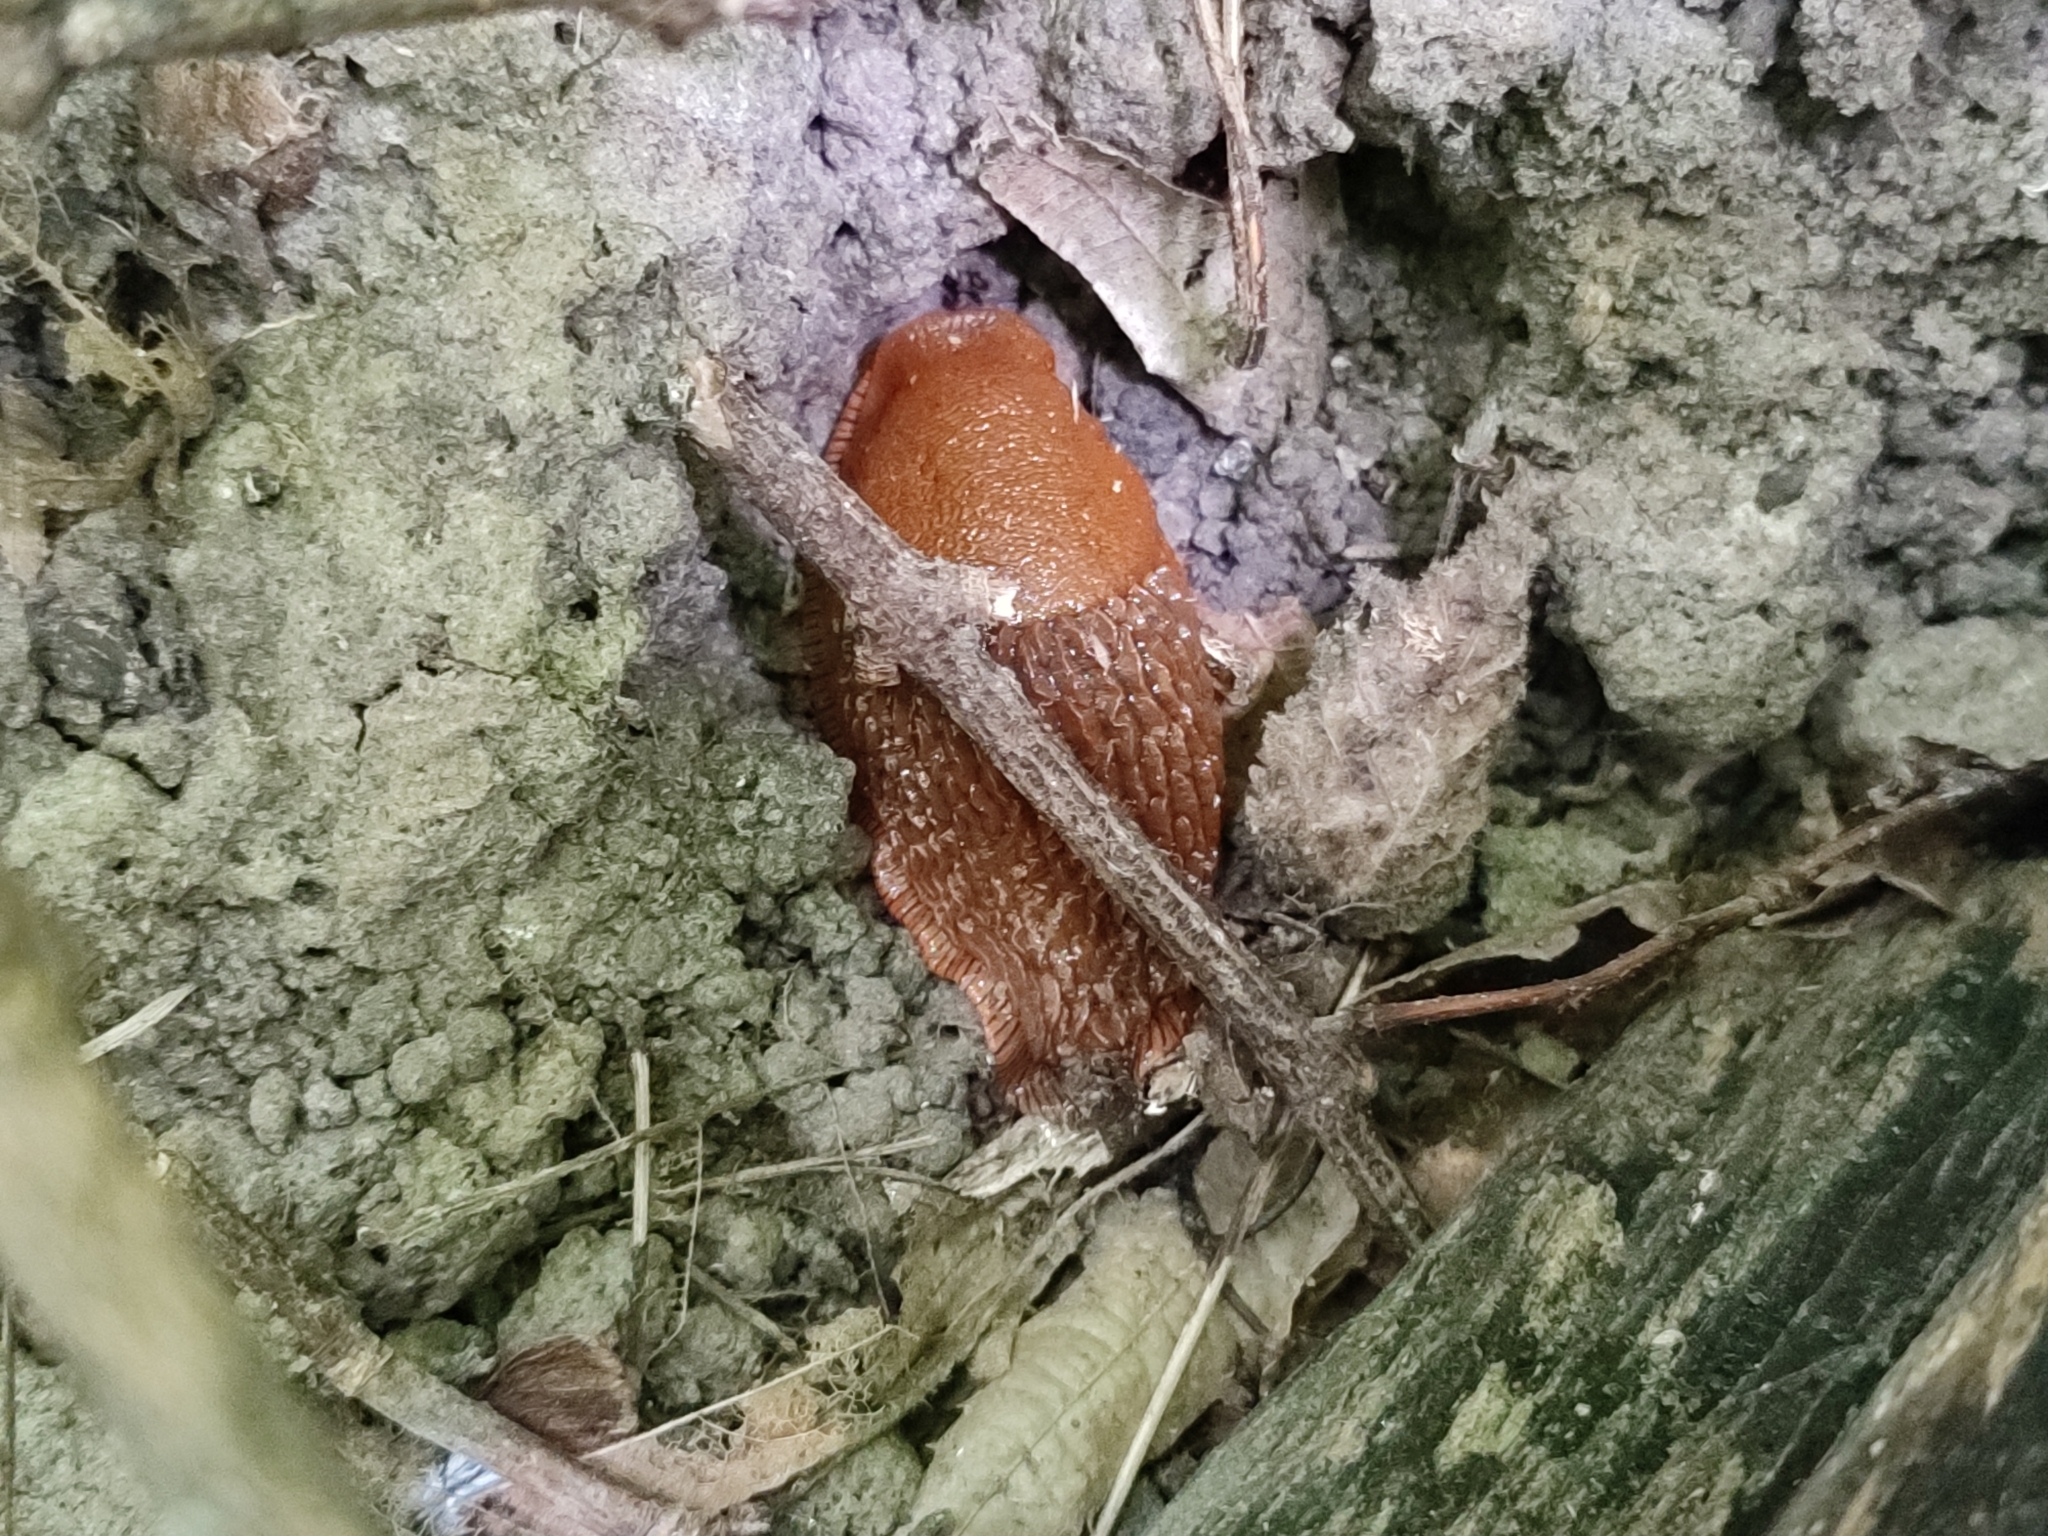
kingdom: Animalia
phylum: Mollusca
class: Gastropoda
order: Stylommatophora
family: Arionidae
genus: Arion
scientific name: Arion vulgaris
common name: Lusitanian slug
